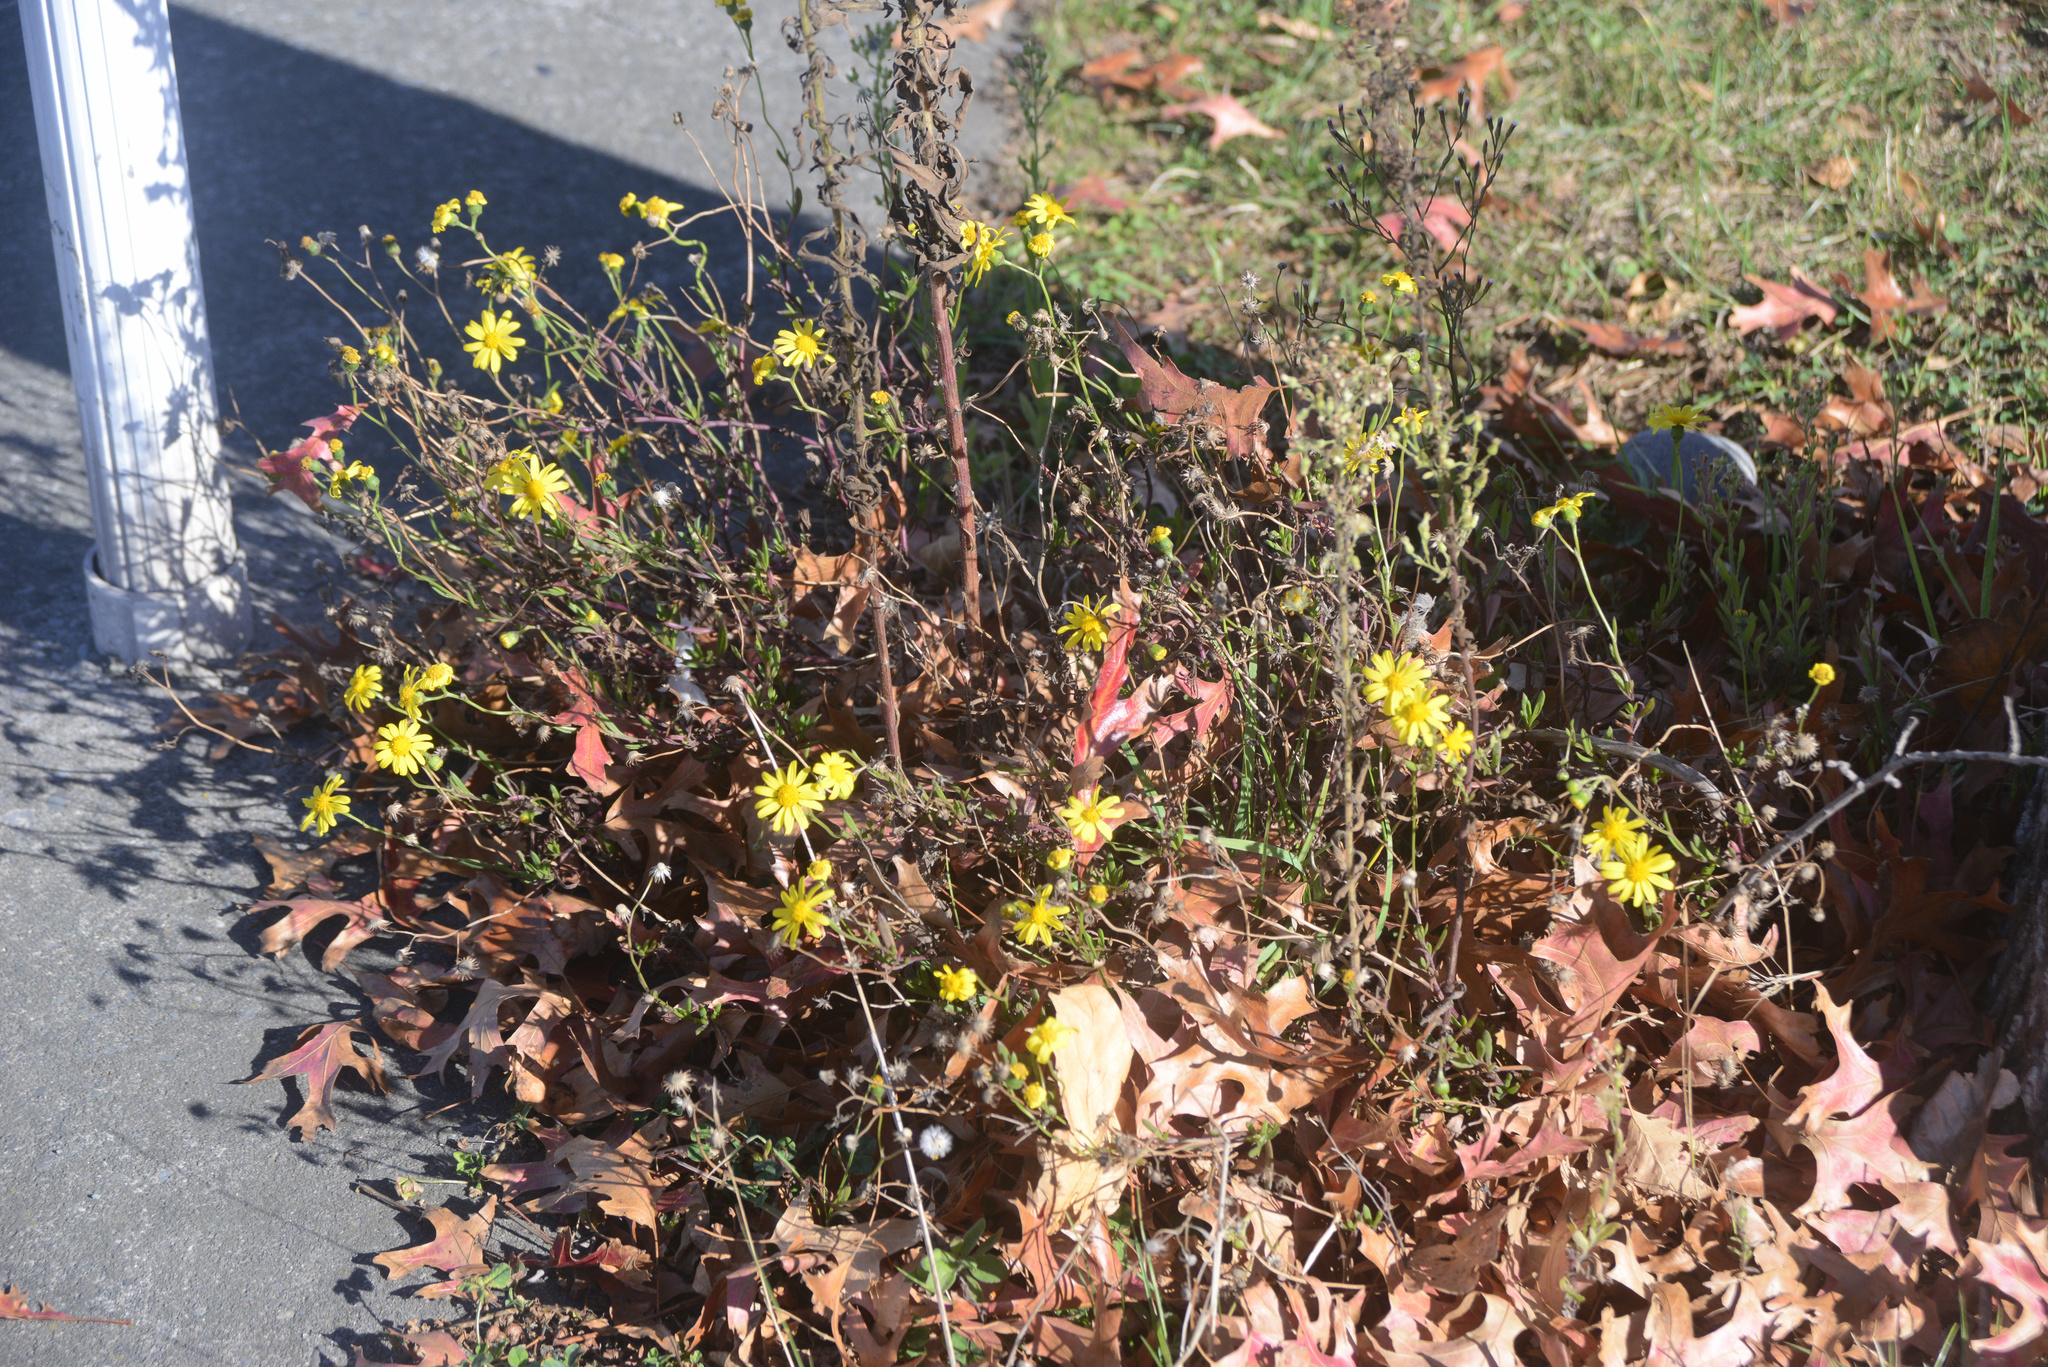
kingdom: Plantae
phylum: Tracheophyta
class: Magnoliopsida
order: Asterales
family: Asteraceae
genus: Senecio
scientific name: Senecio skirrhodon
